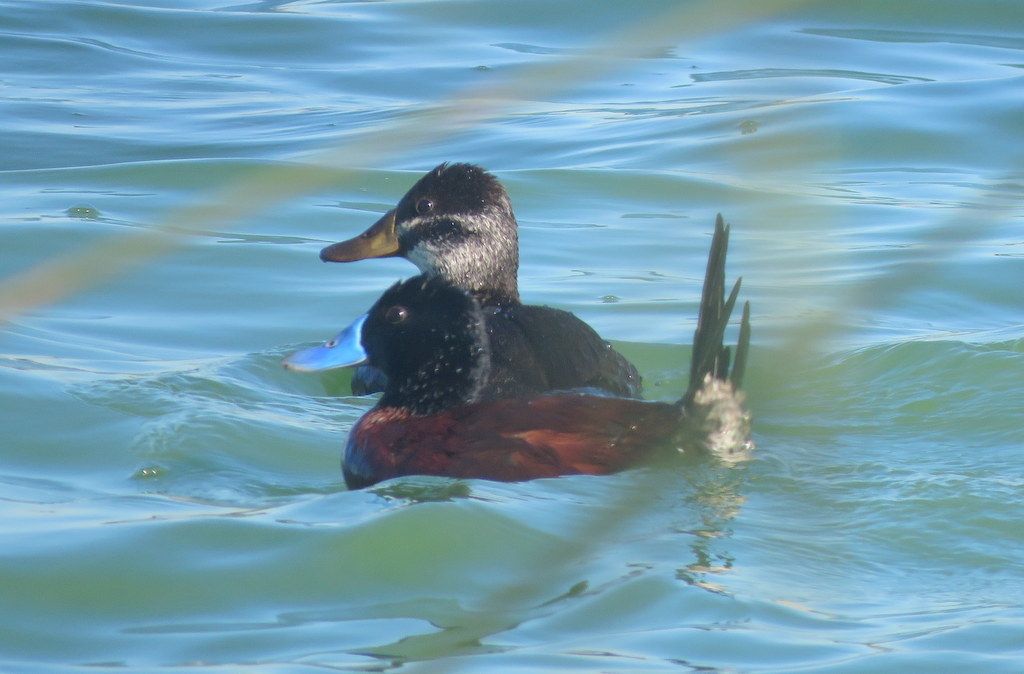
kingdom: Animalia
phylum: Chordata
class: Aves
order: Anseriformes
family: Anatidae
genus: Oxyura
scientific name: Oxyura vittata
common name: Lake duck
